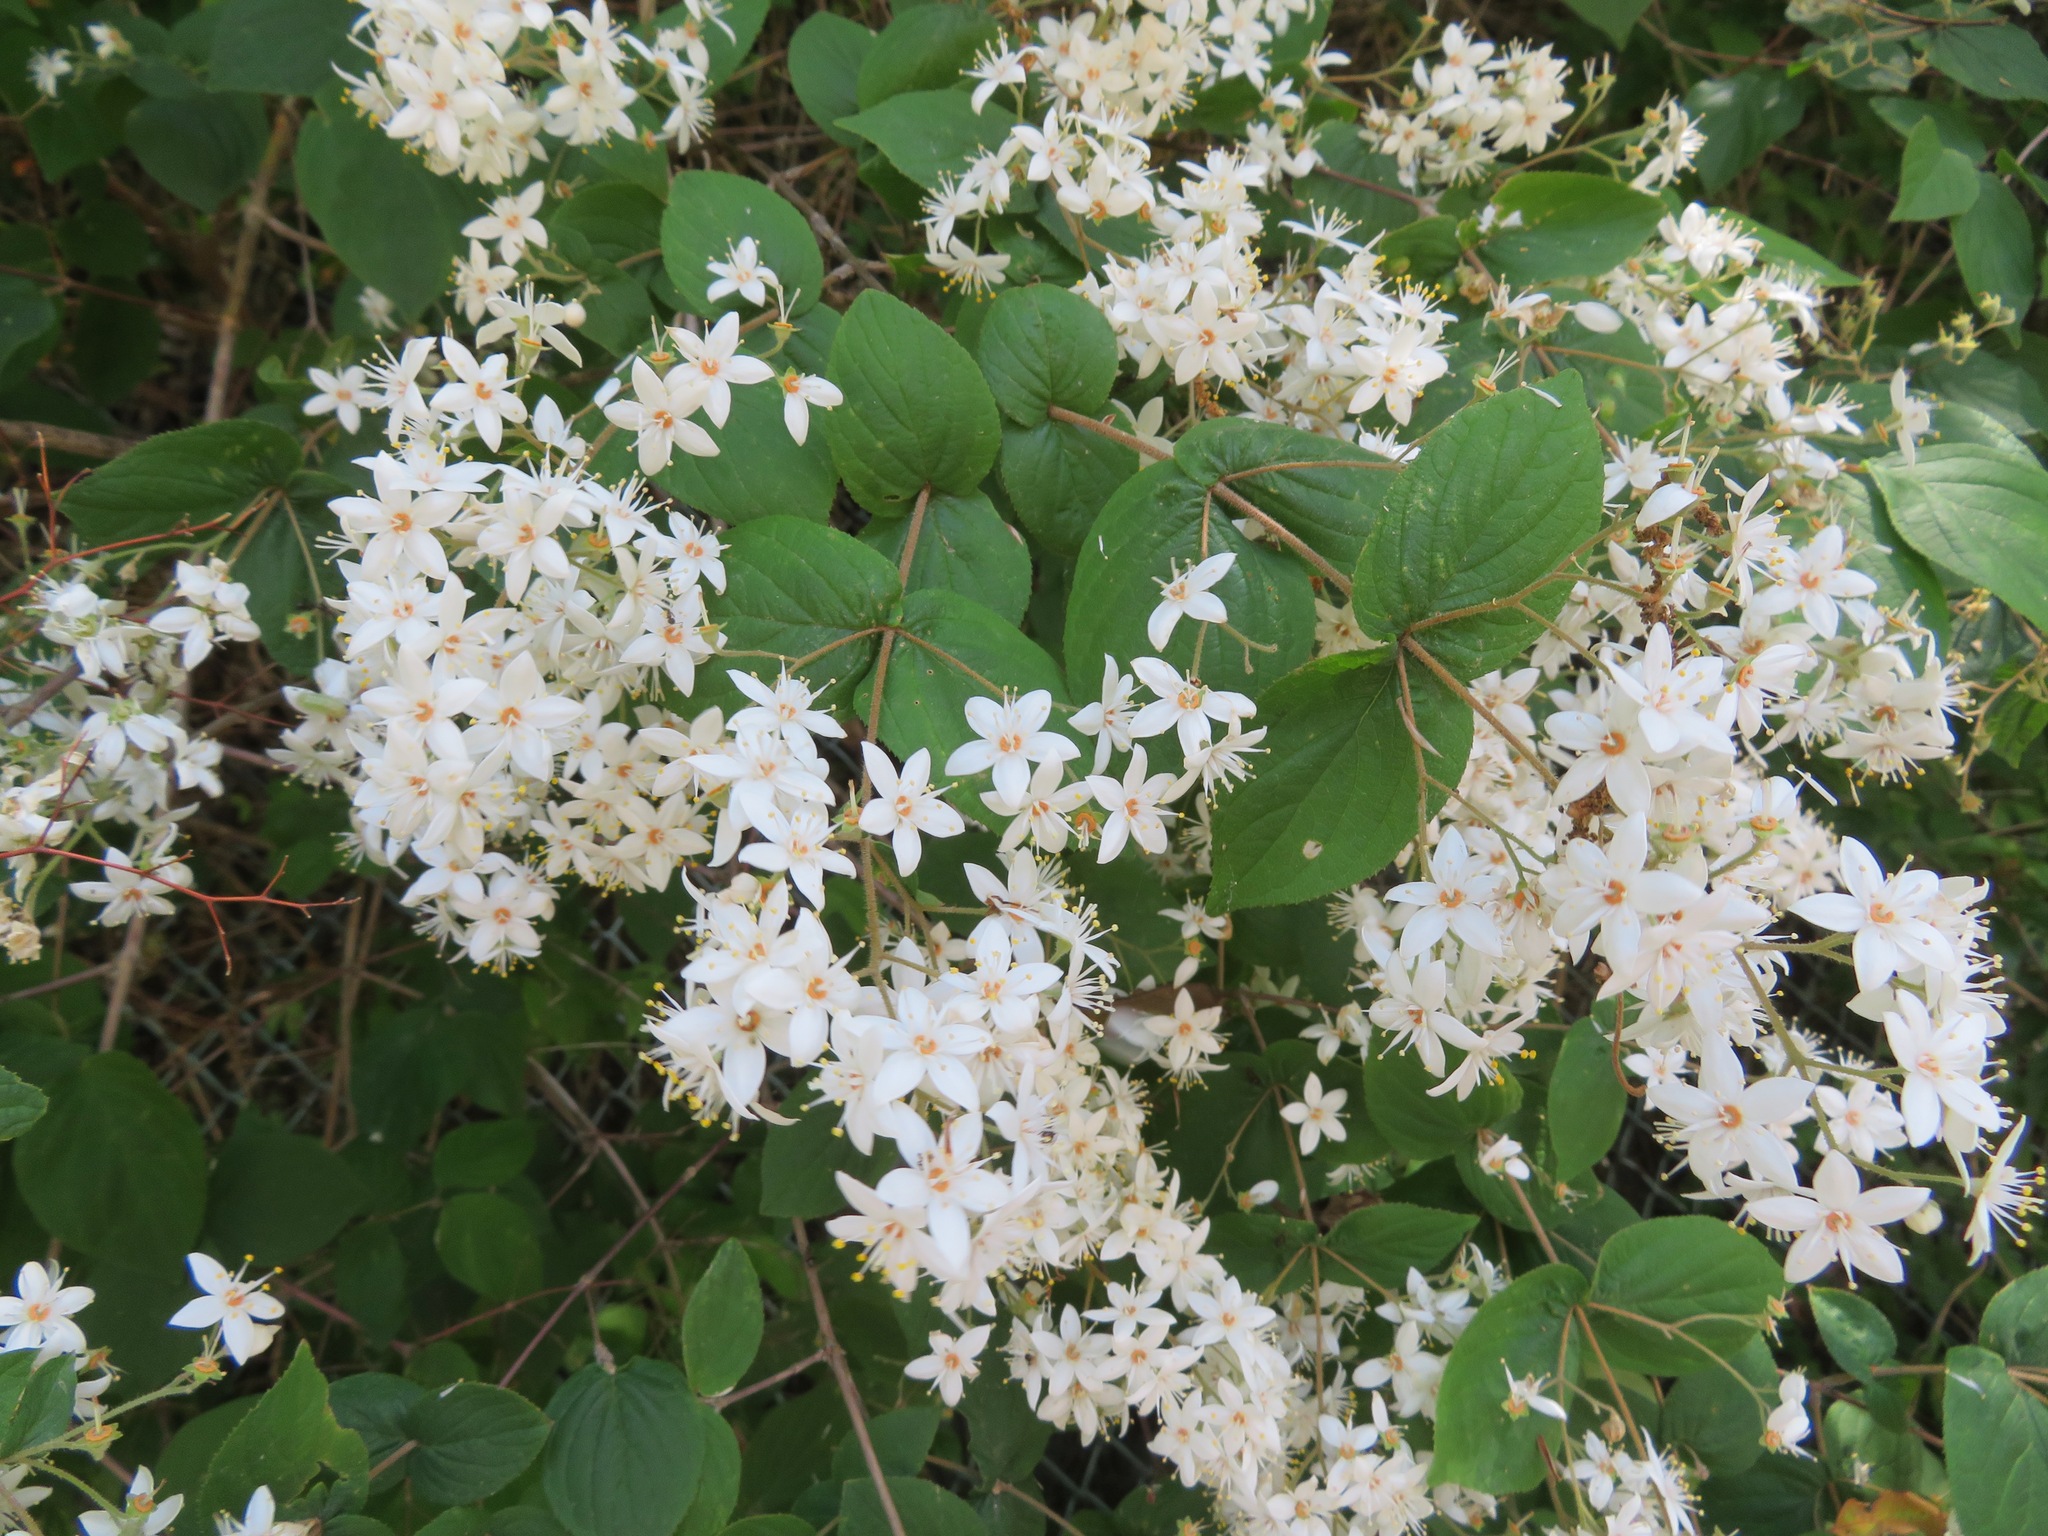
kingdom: Plantae
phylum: Tracheophyta
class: Magnoliopsida
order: Cornales
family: Hydrangeaceae
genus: Deutzia
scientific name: Deutzia scabra
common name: Deutzia
